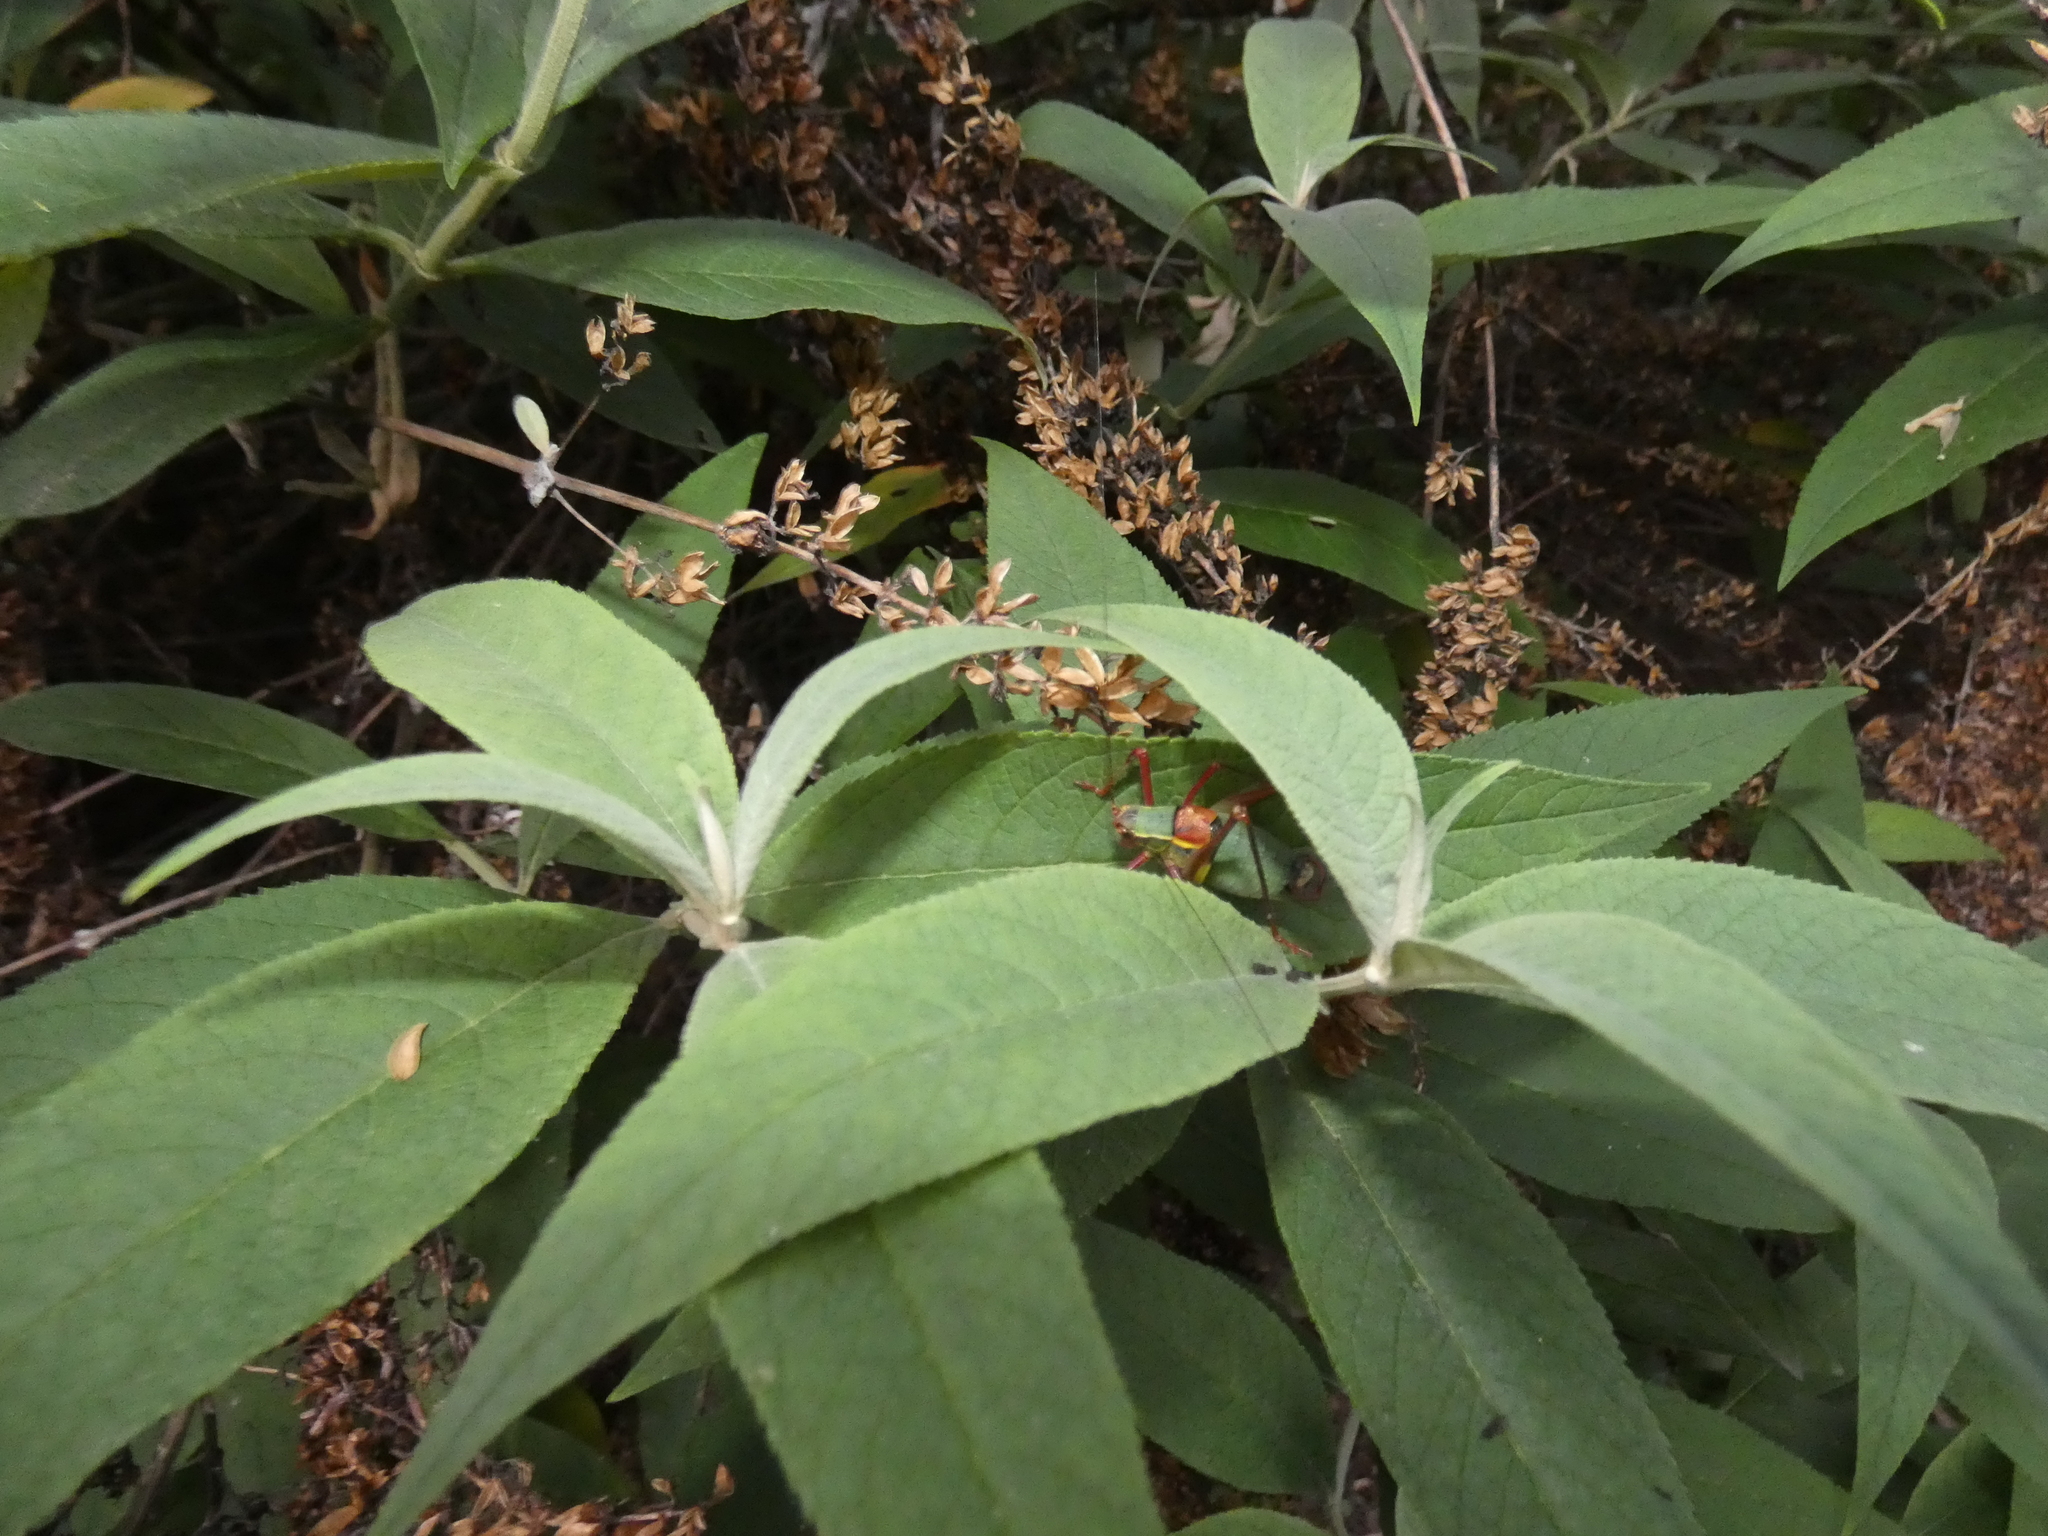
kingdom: Animalia
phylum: Arthropoda
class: Insecta
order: Orthoptera
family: Tettigoniidae
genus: Barbitistes
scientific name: Barbitistes obtusus
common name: Alpine saw bush-cricket
